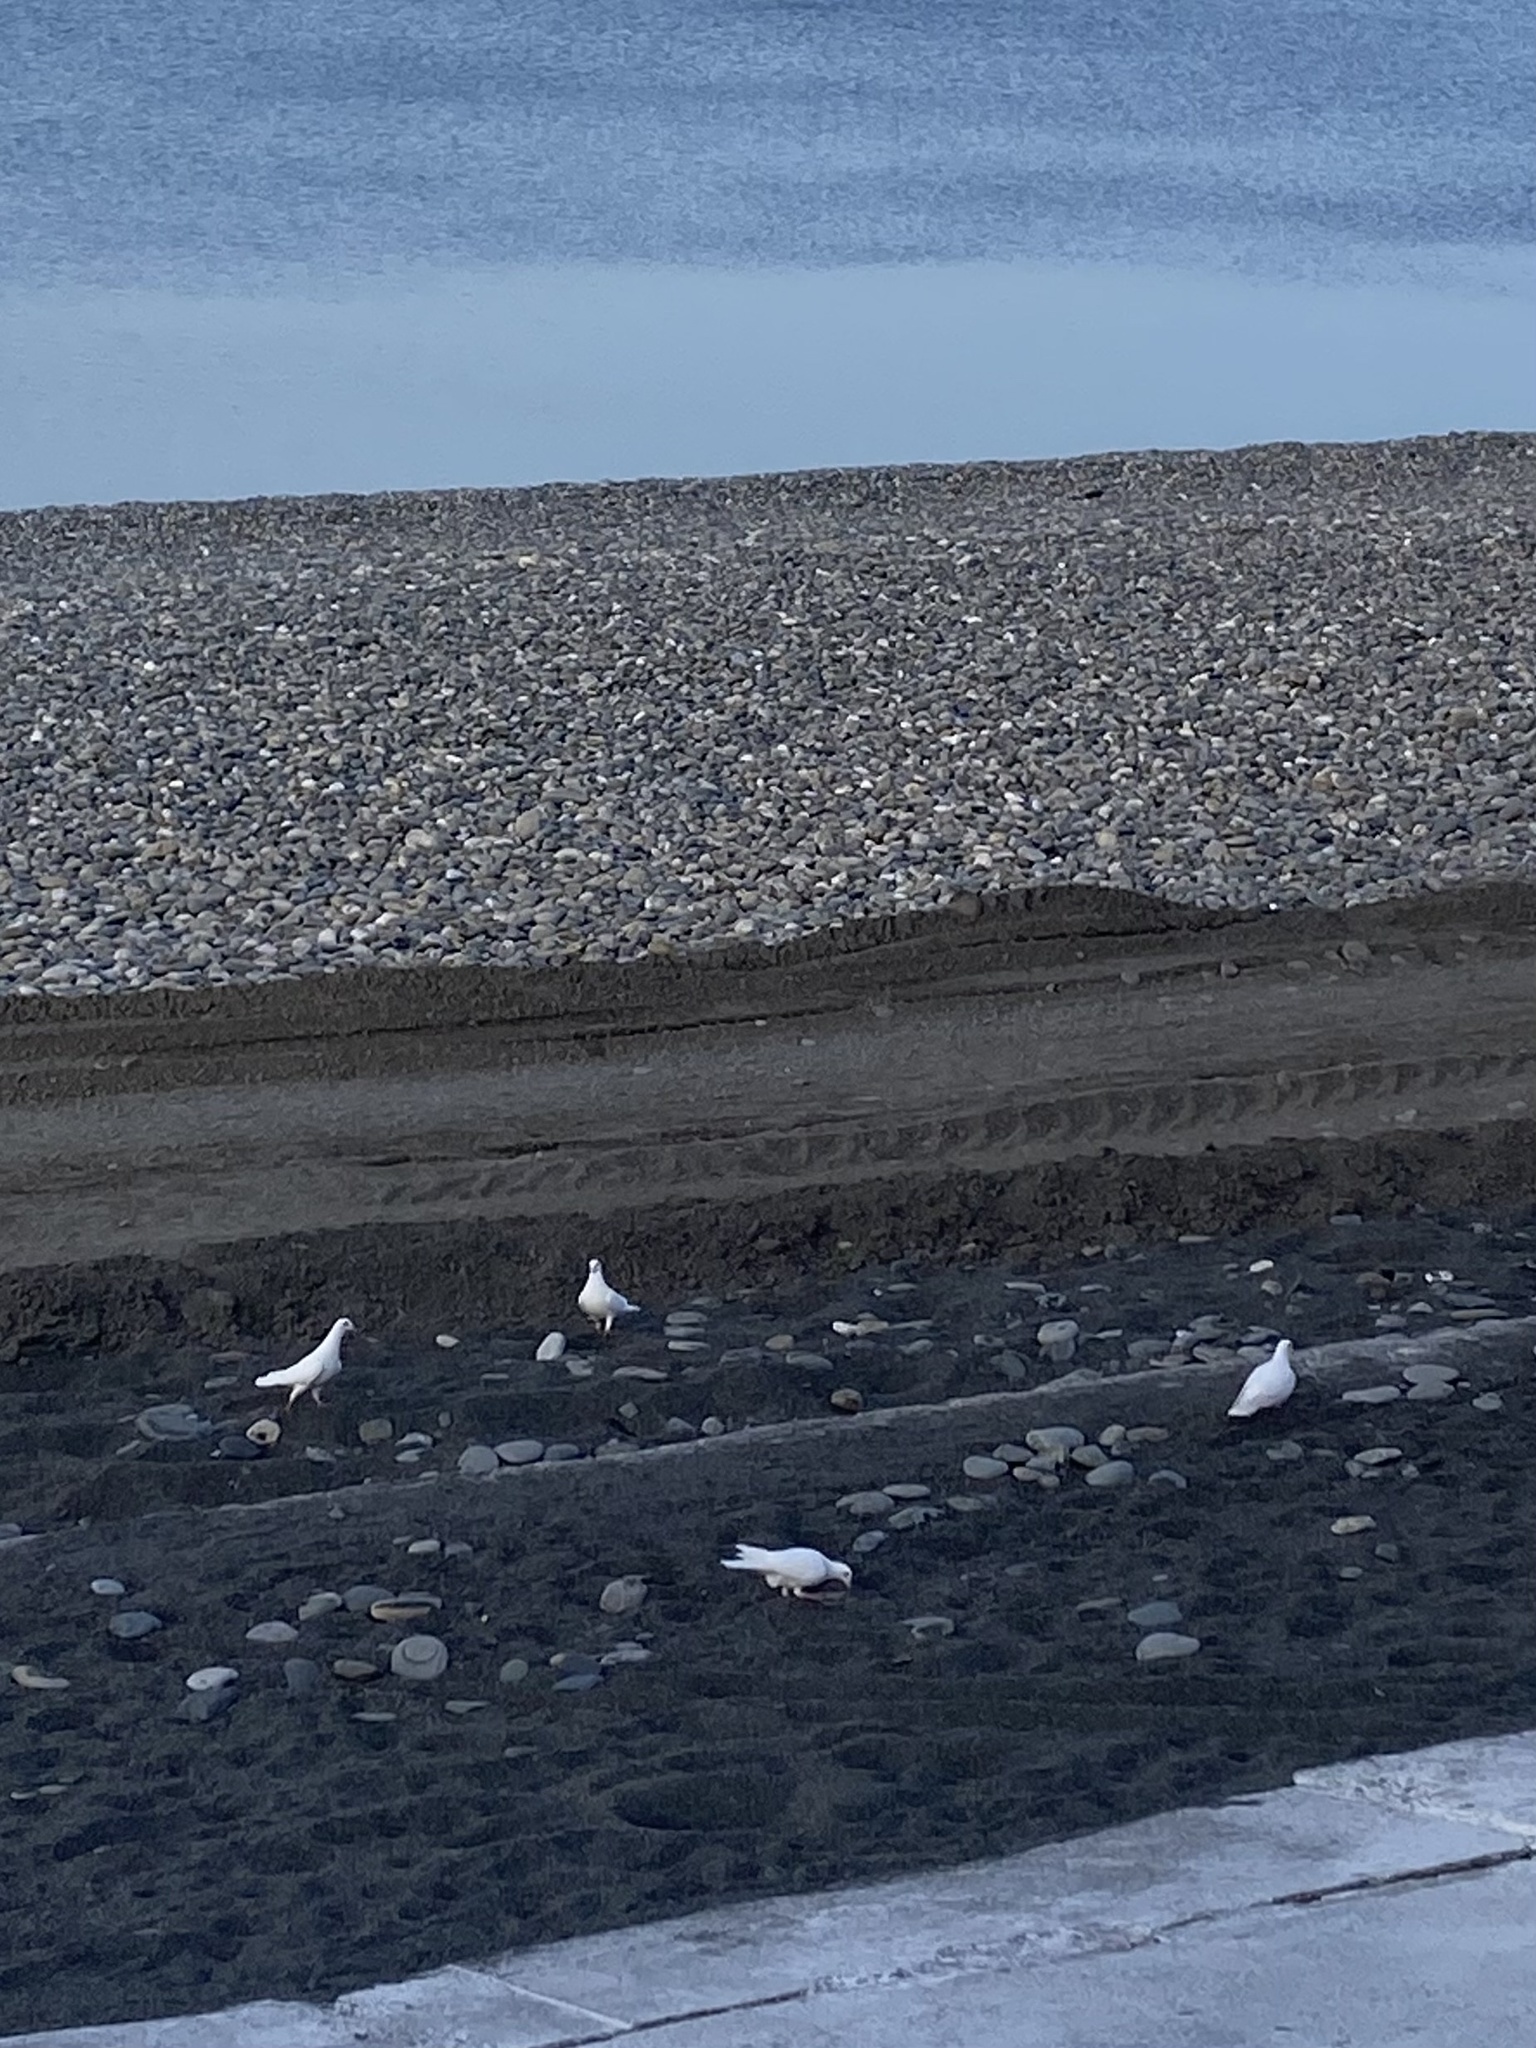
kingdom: Animalia
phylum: Chordata
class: Aves
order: Columbiformes
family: Columbidae
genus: Columba
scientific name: Columba livia
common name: Rock pigeon
